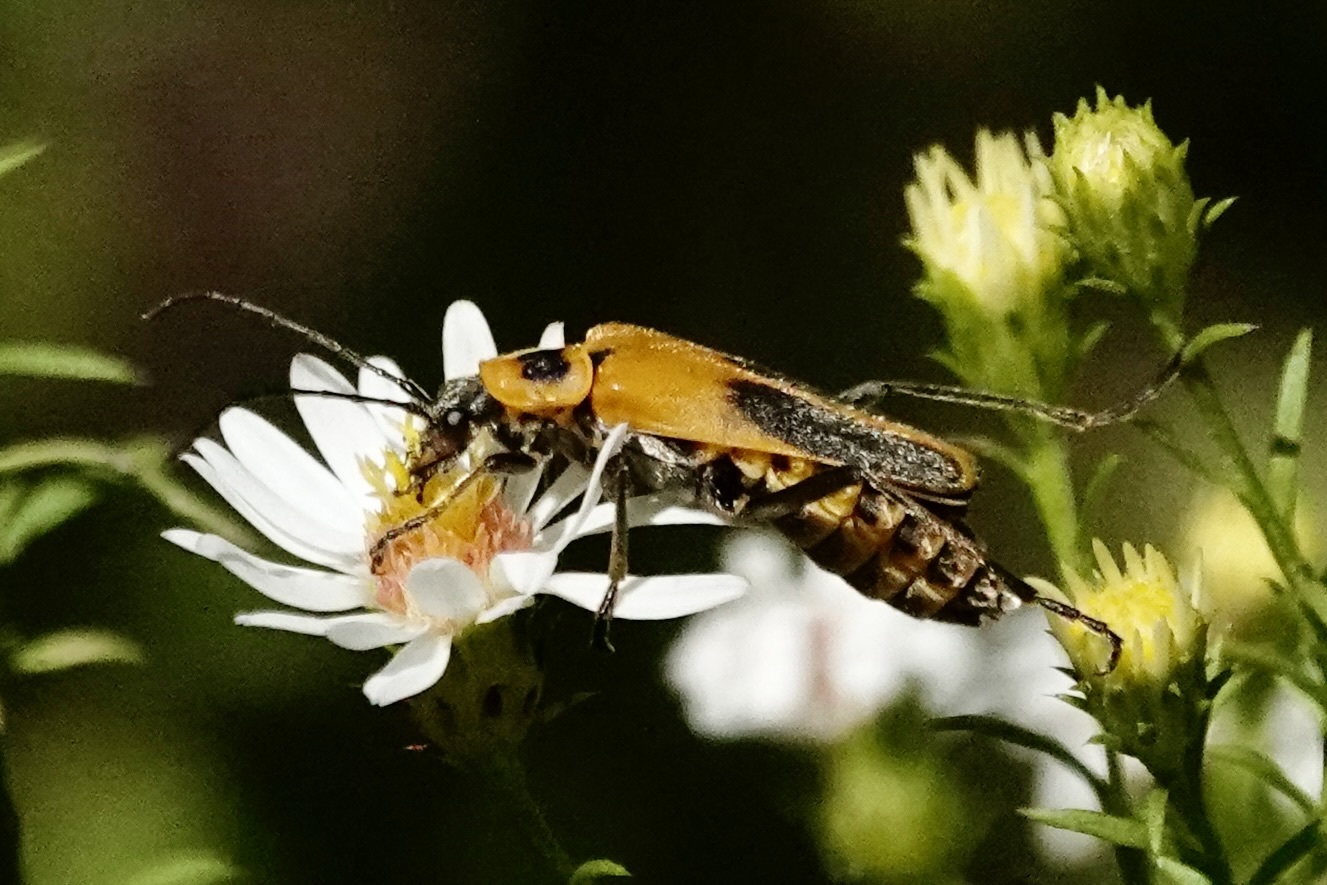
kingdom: Animalia
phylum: Arthropoda
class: Insecta
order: Coleoptera
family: Cantharidae
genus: Chauliognathus
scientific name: Chauliognathus pensylvanicus
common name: Goldenrod soldier beetle
